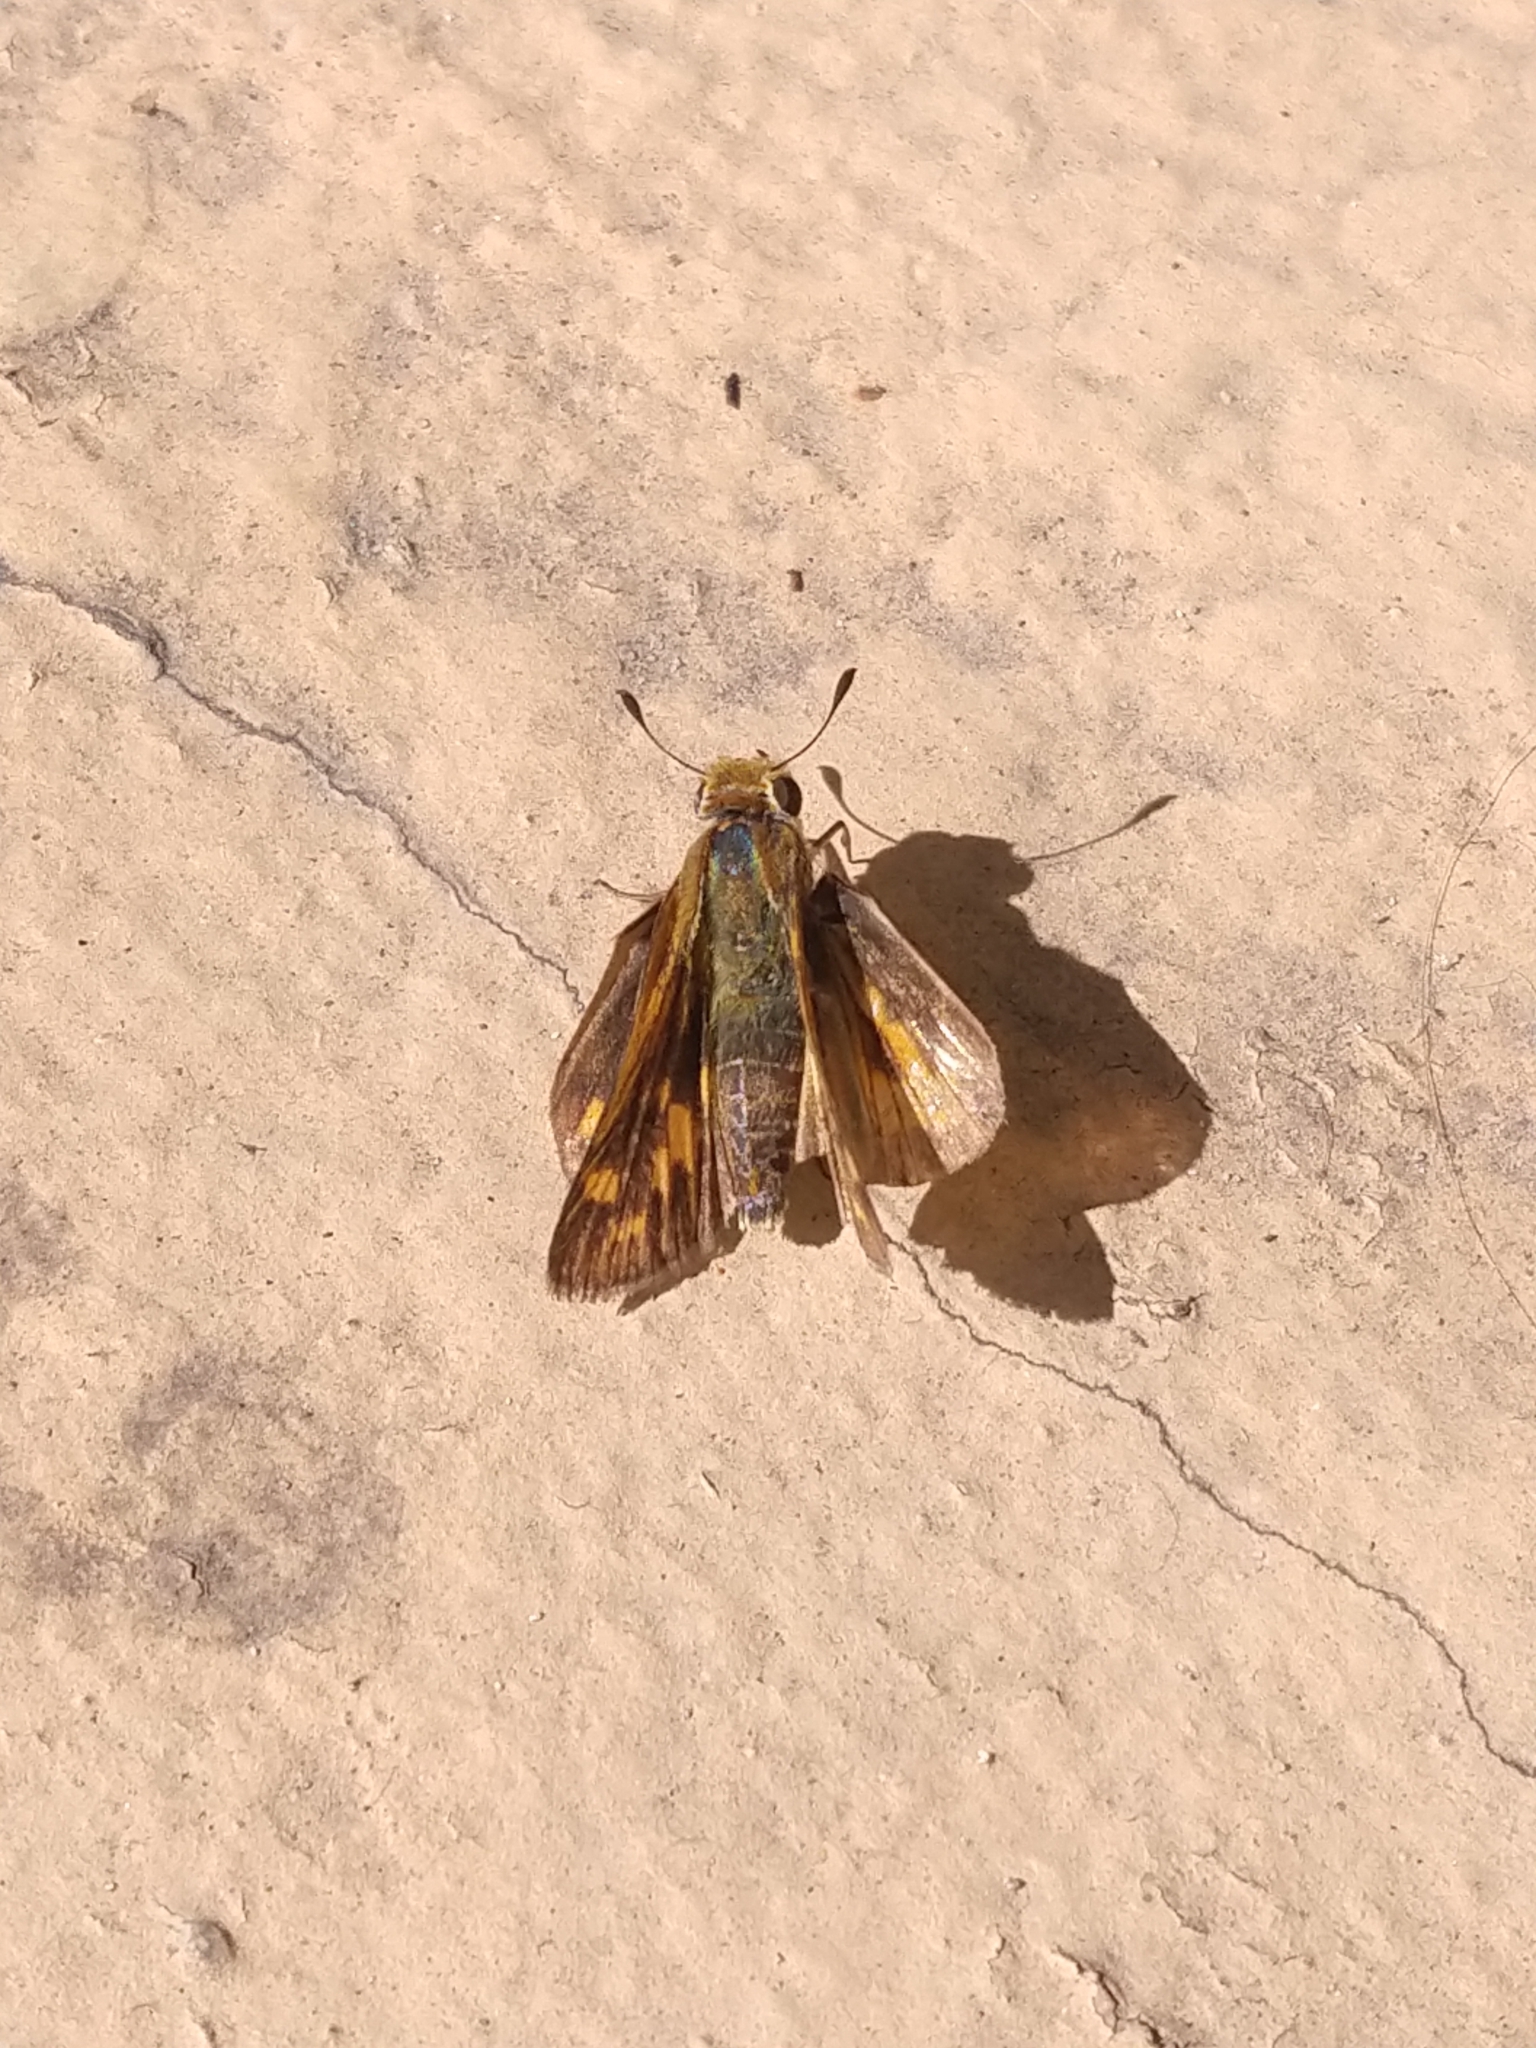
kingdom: Animalia
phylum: Arthropoda
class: Insecta
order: Lepidoptera
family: Hesperiidae
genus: Hylephila
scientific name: Hylephila phyleus
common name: Fiery skipper
